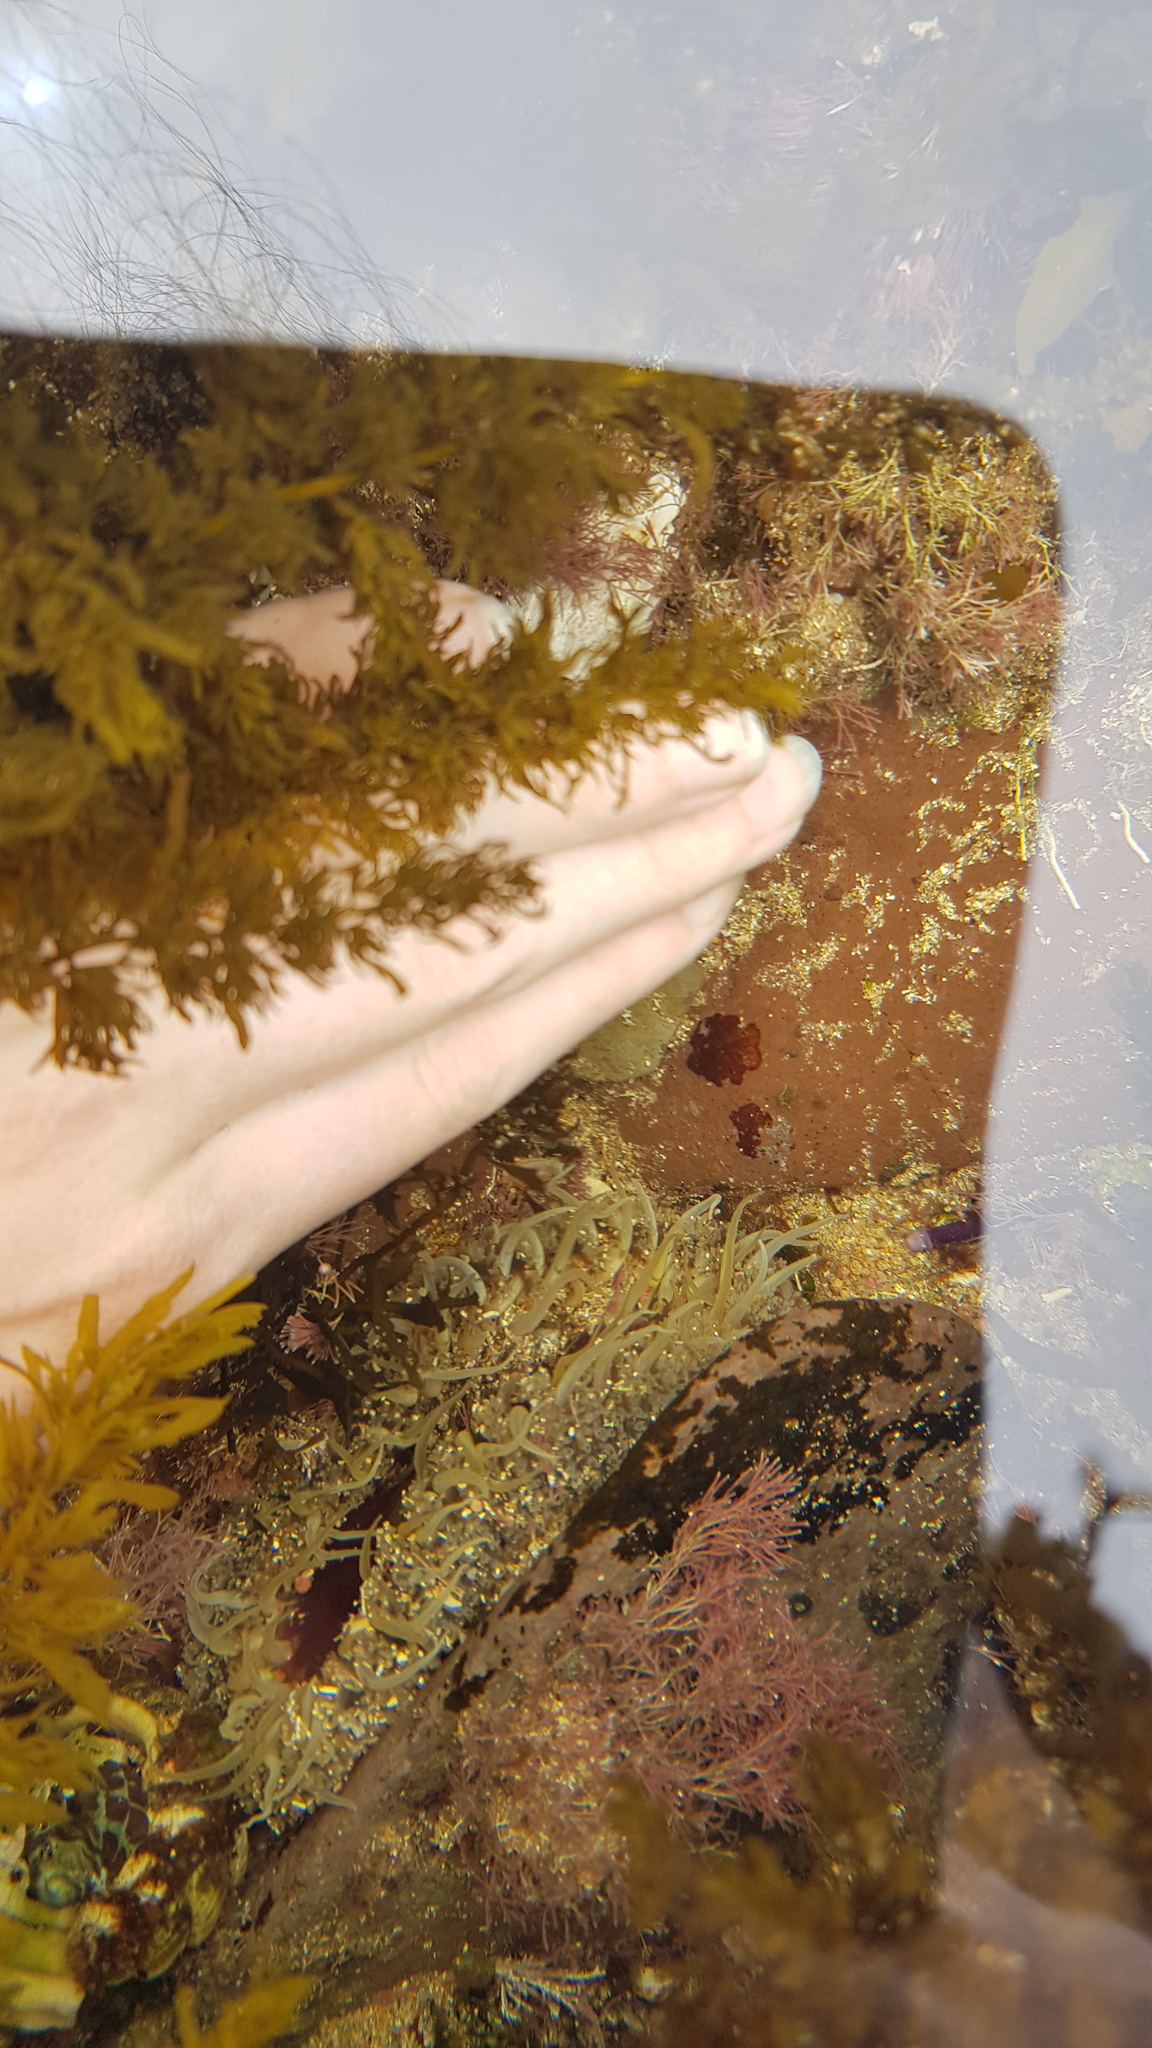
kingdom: Animalia
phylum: Cnidaria
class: Anthozoa
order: Actiniaria
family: Actiniidae
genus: Oulactis
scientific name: Oulactis muscosa
